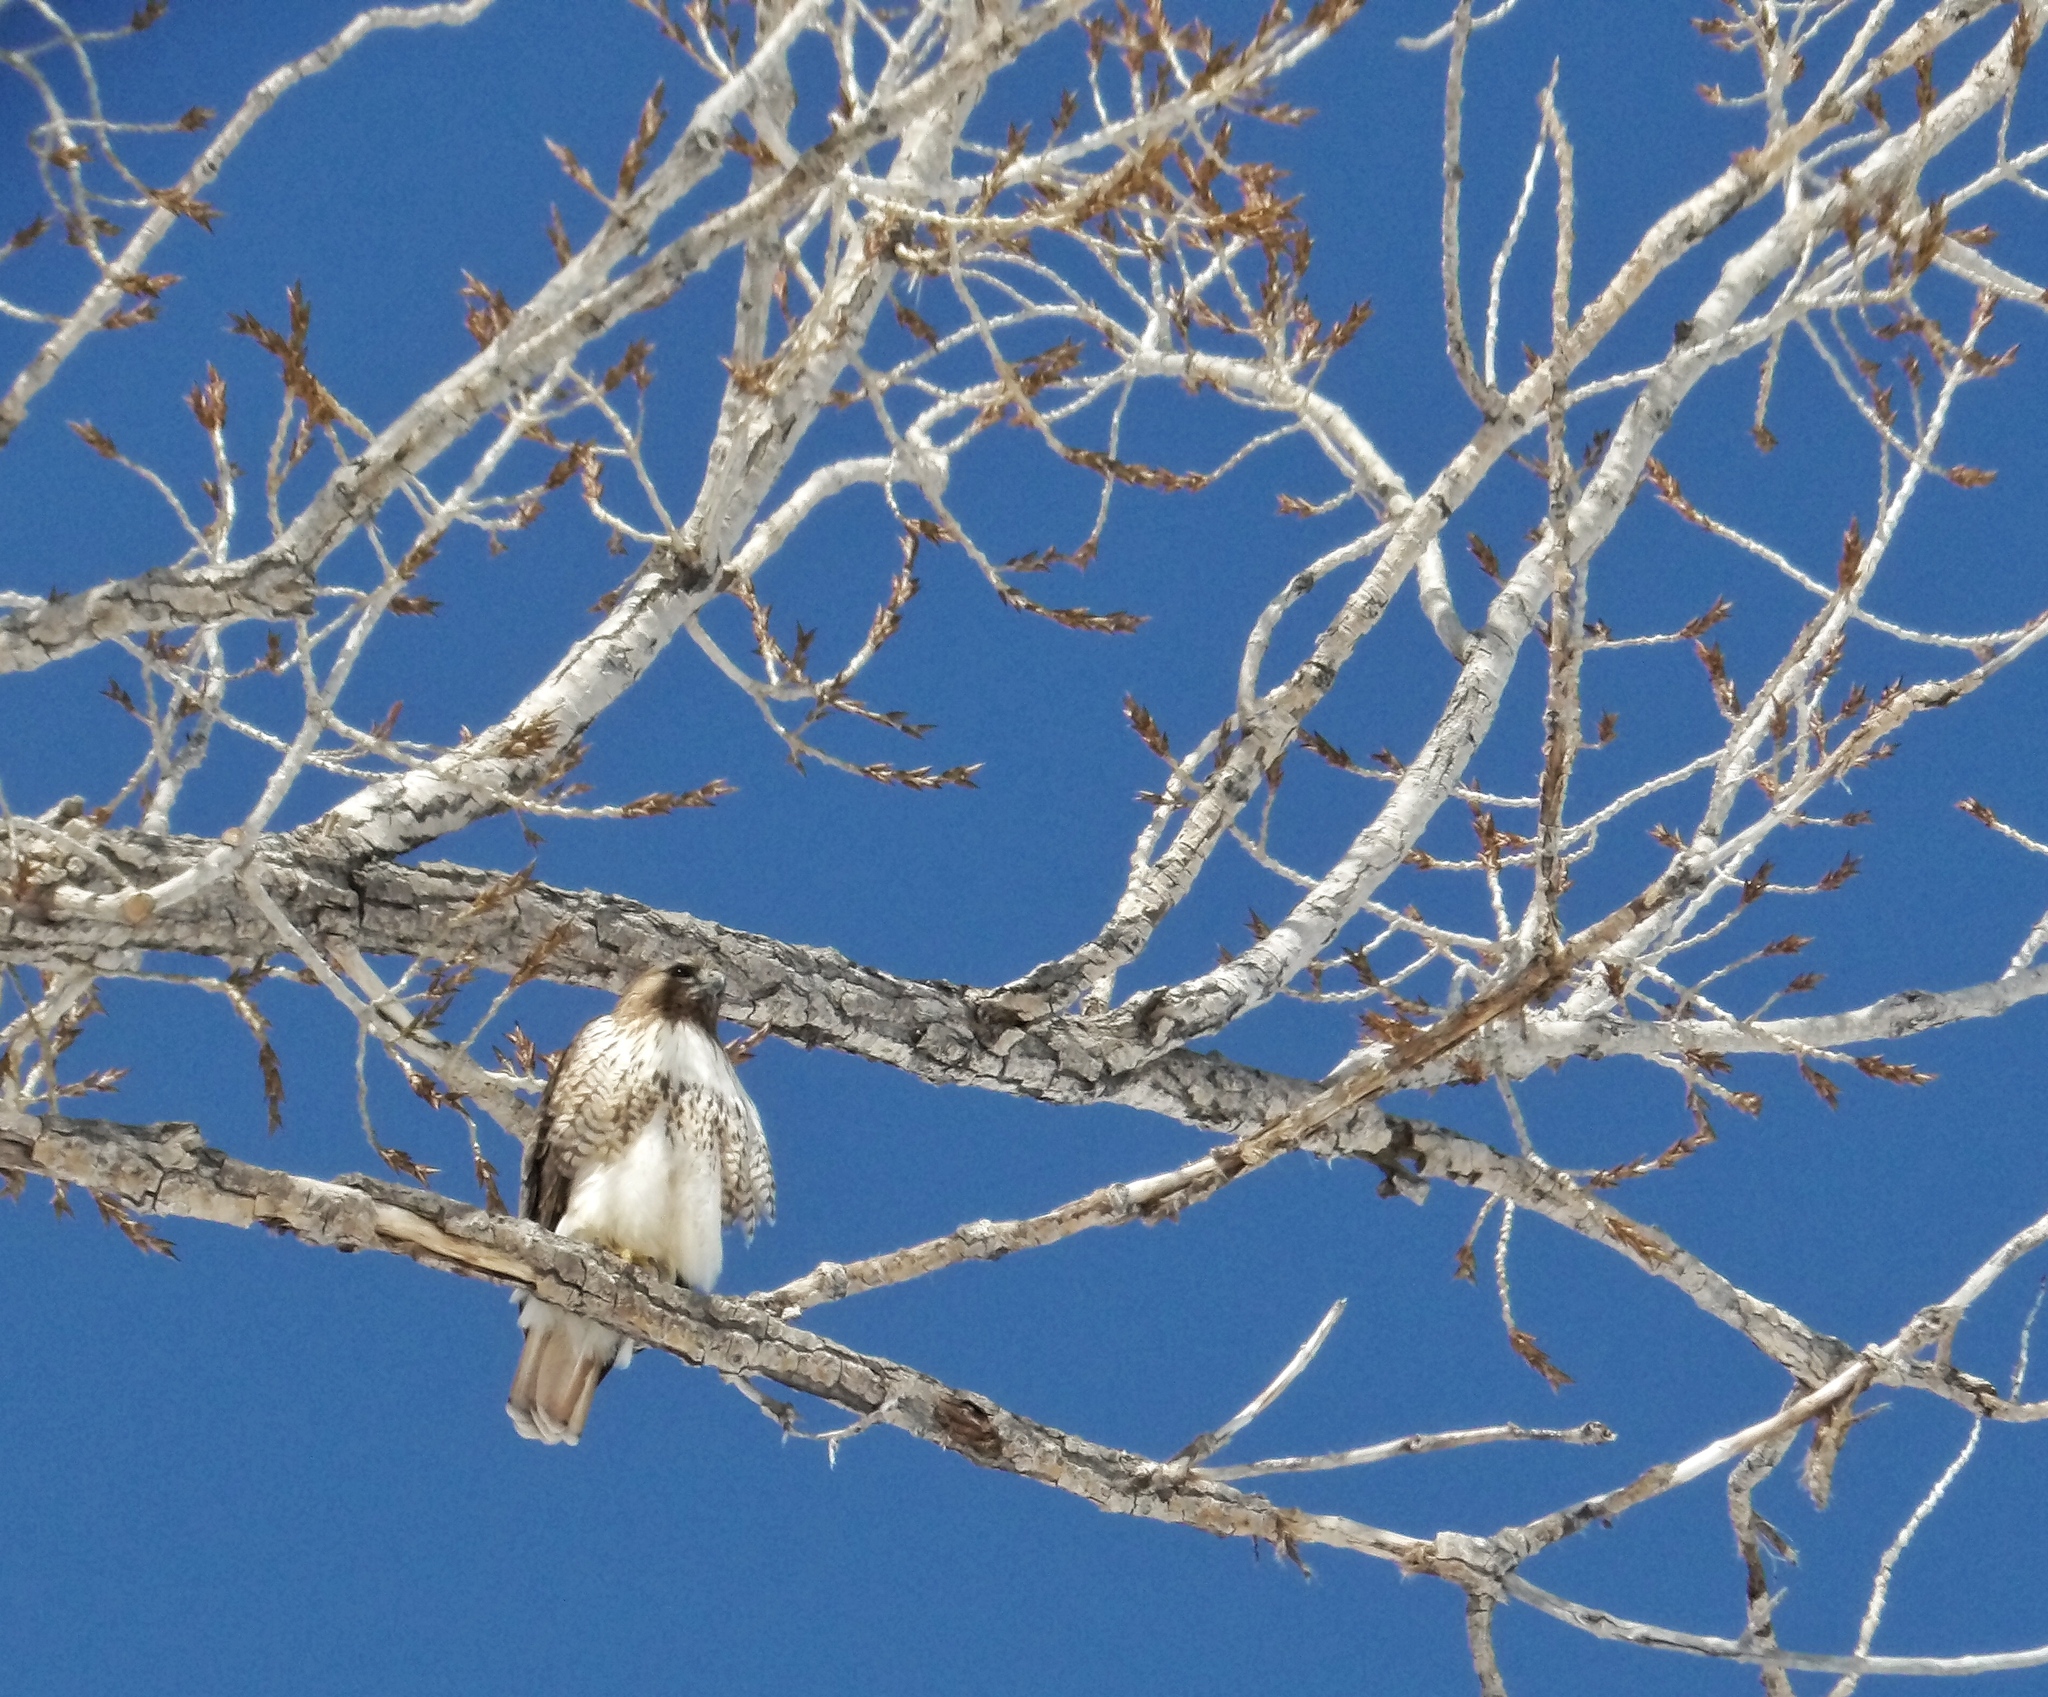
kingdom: Animalia
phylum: Chordata
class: Aves
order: Accipitriformes
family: Accipitridae
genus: Buteo
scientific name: Buteo jamaicensis
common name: Red-tailed hawk
